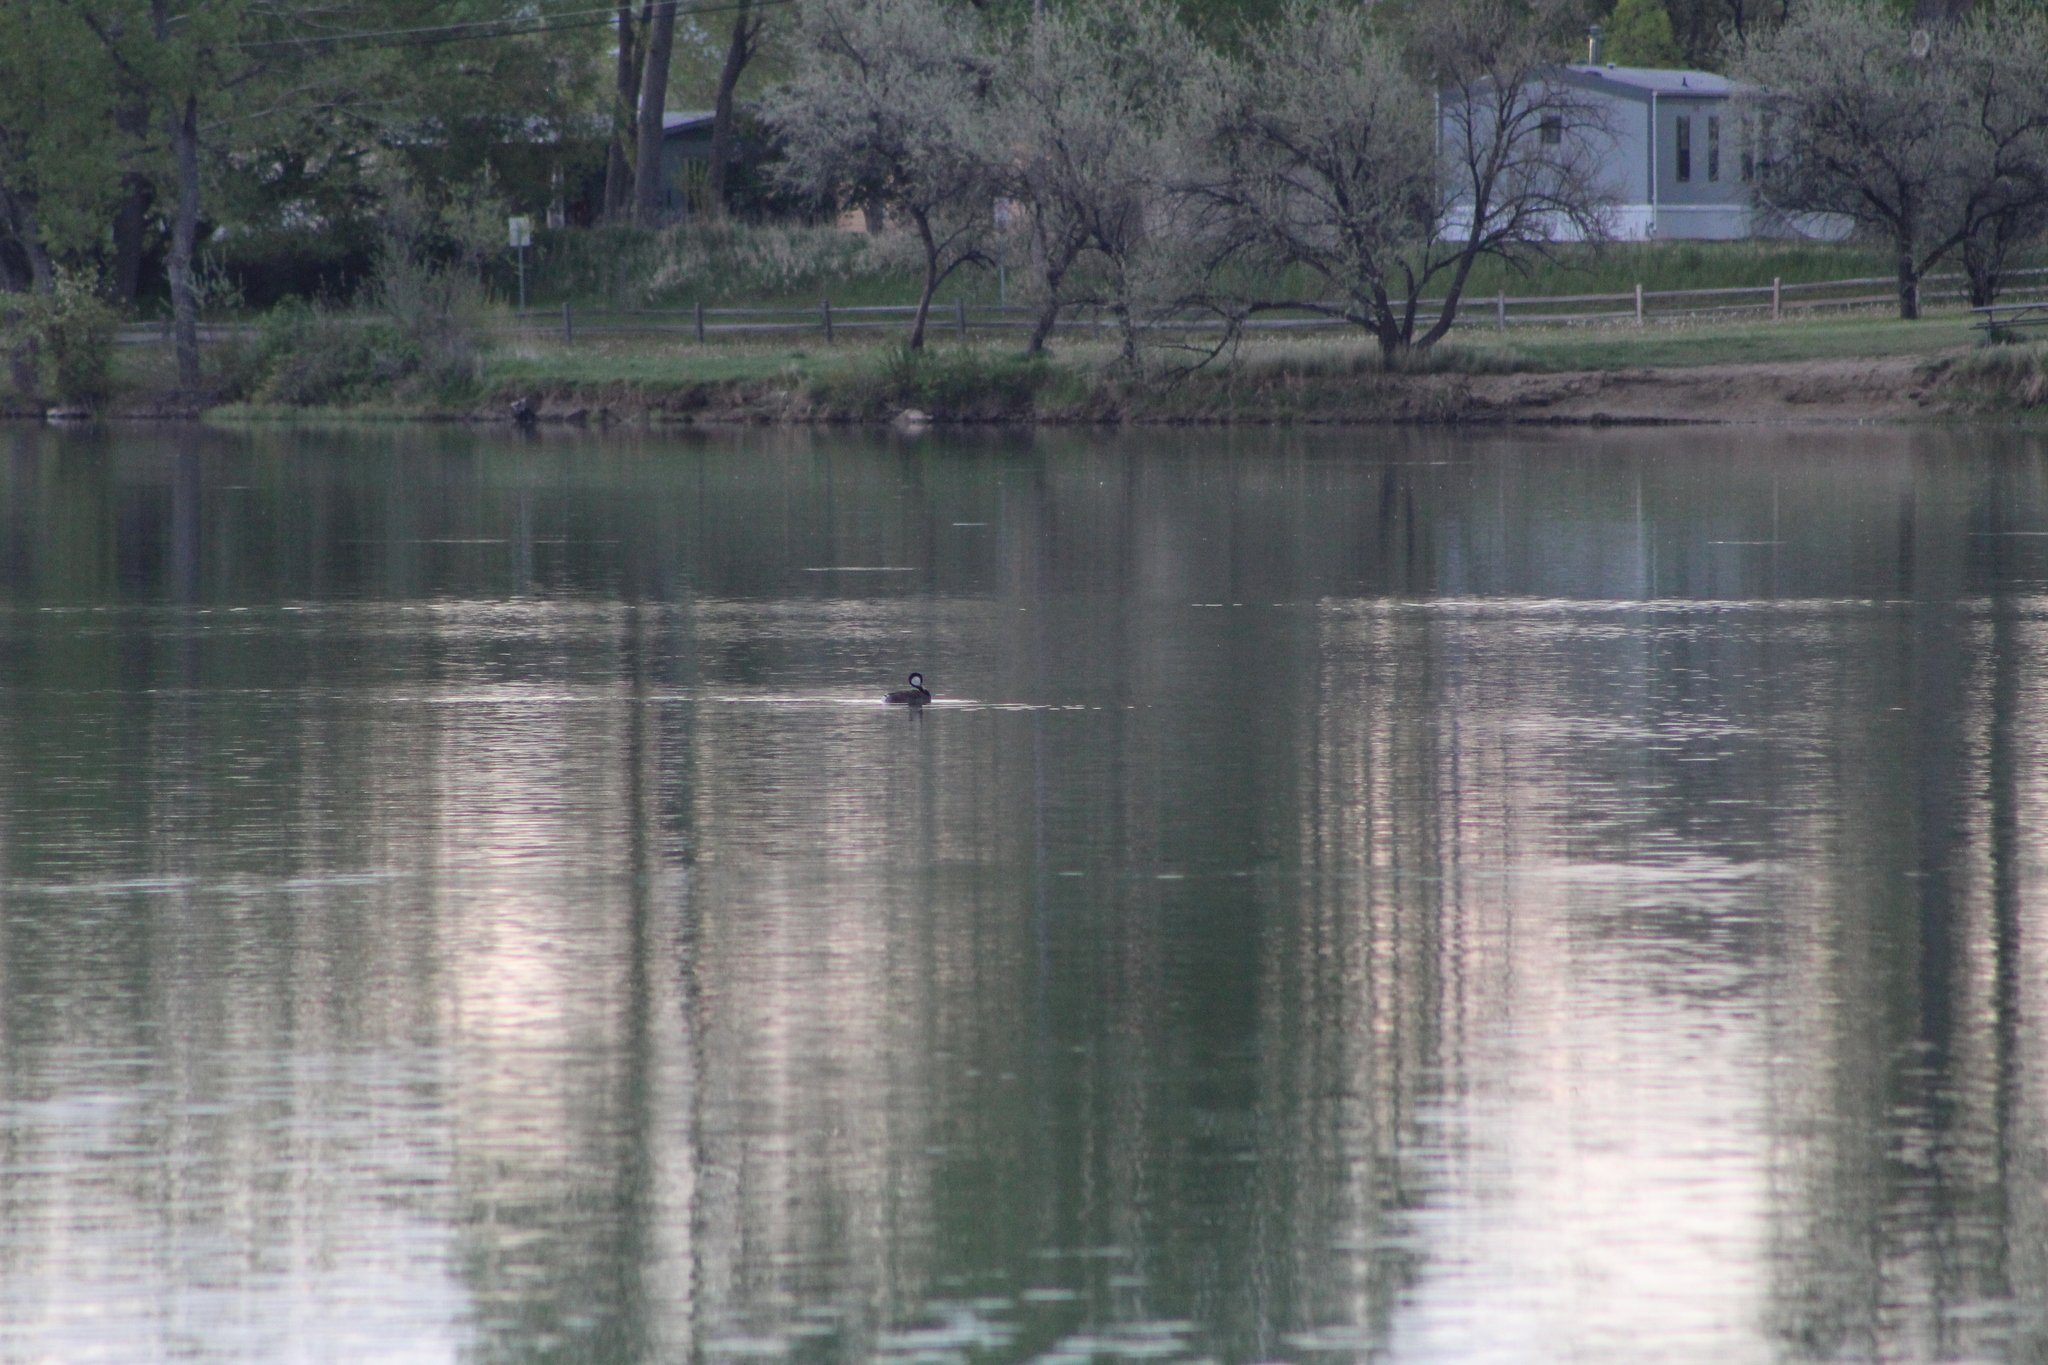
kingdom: Animalia
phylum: Chordata
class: Aves
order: Podicipediformes
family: Podicipedidae
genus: Aechmophorus
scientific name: Aechmophorus occidentalis
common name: Western grebe
